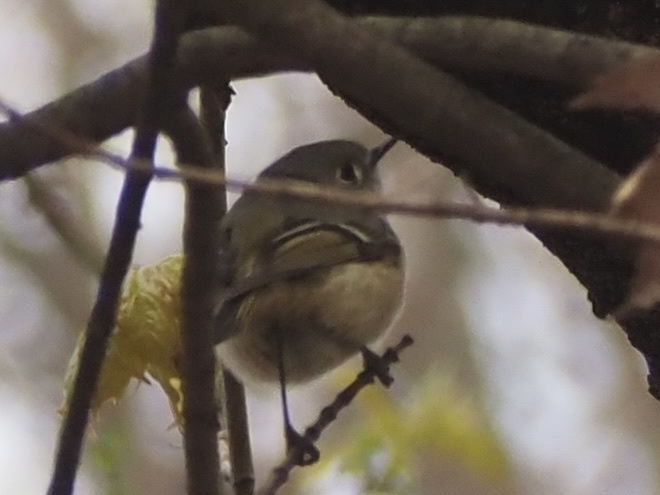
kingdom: Animalia
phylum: Chordata
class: Aves
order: Passeriformes
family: Regulidae
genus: Regulus
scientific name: Regulus calendula
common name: Ruby-crowned kinglet
